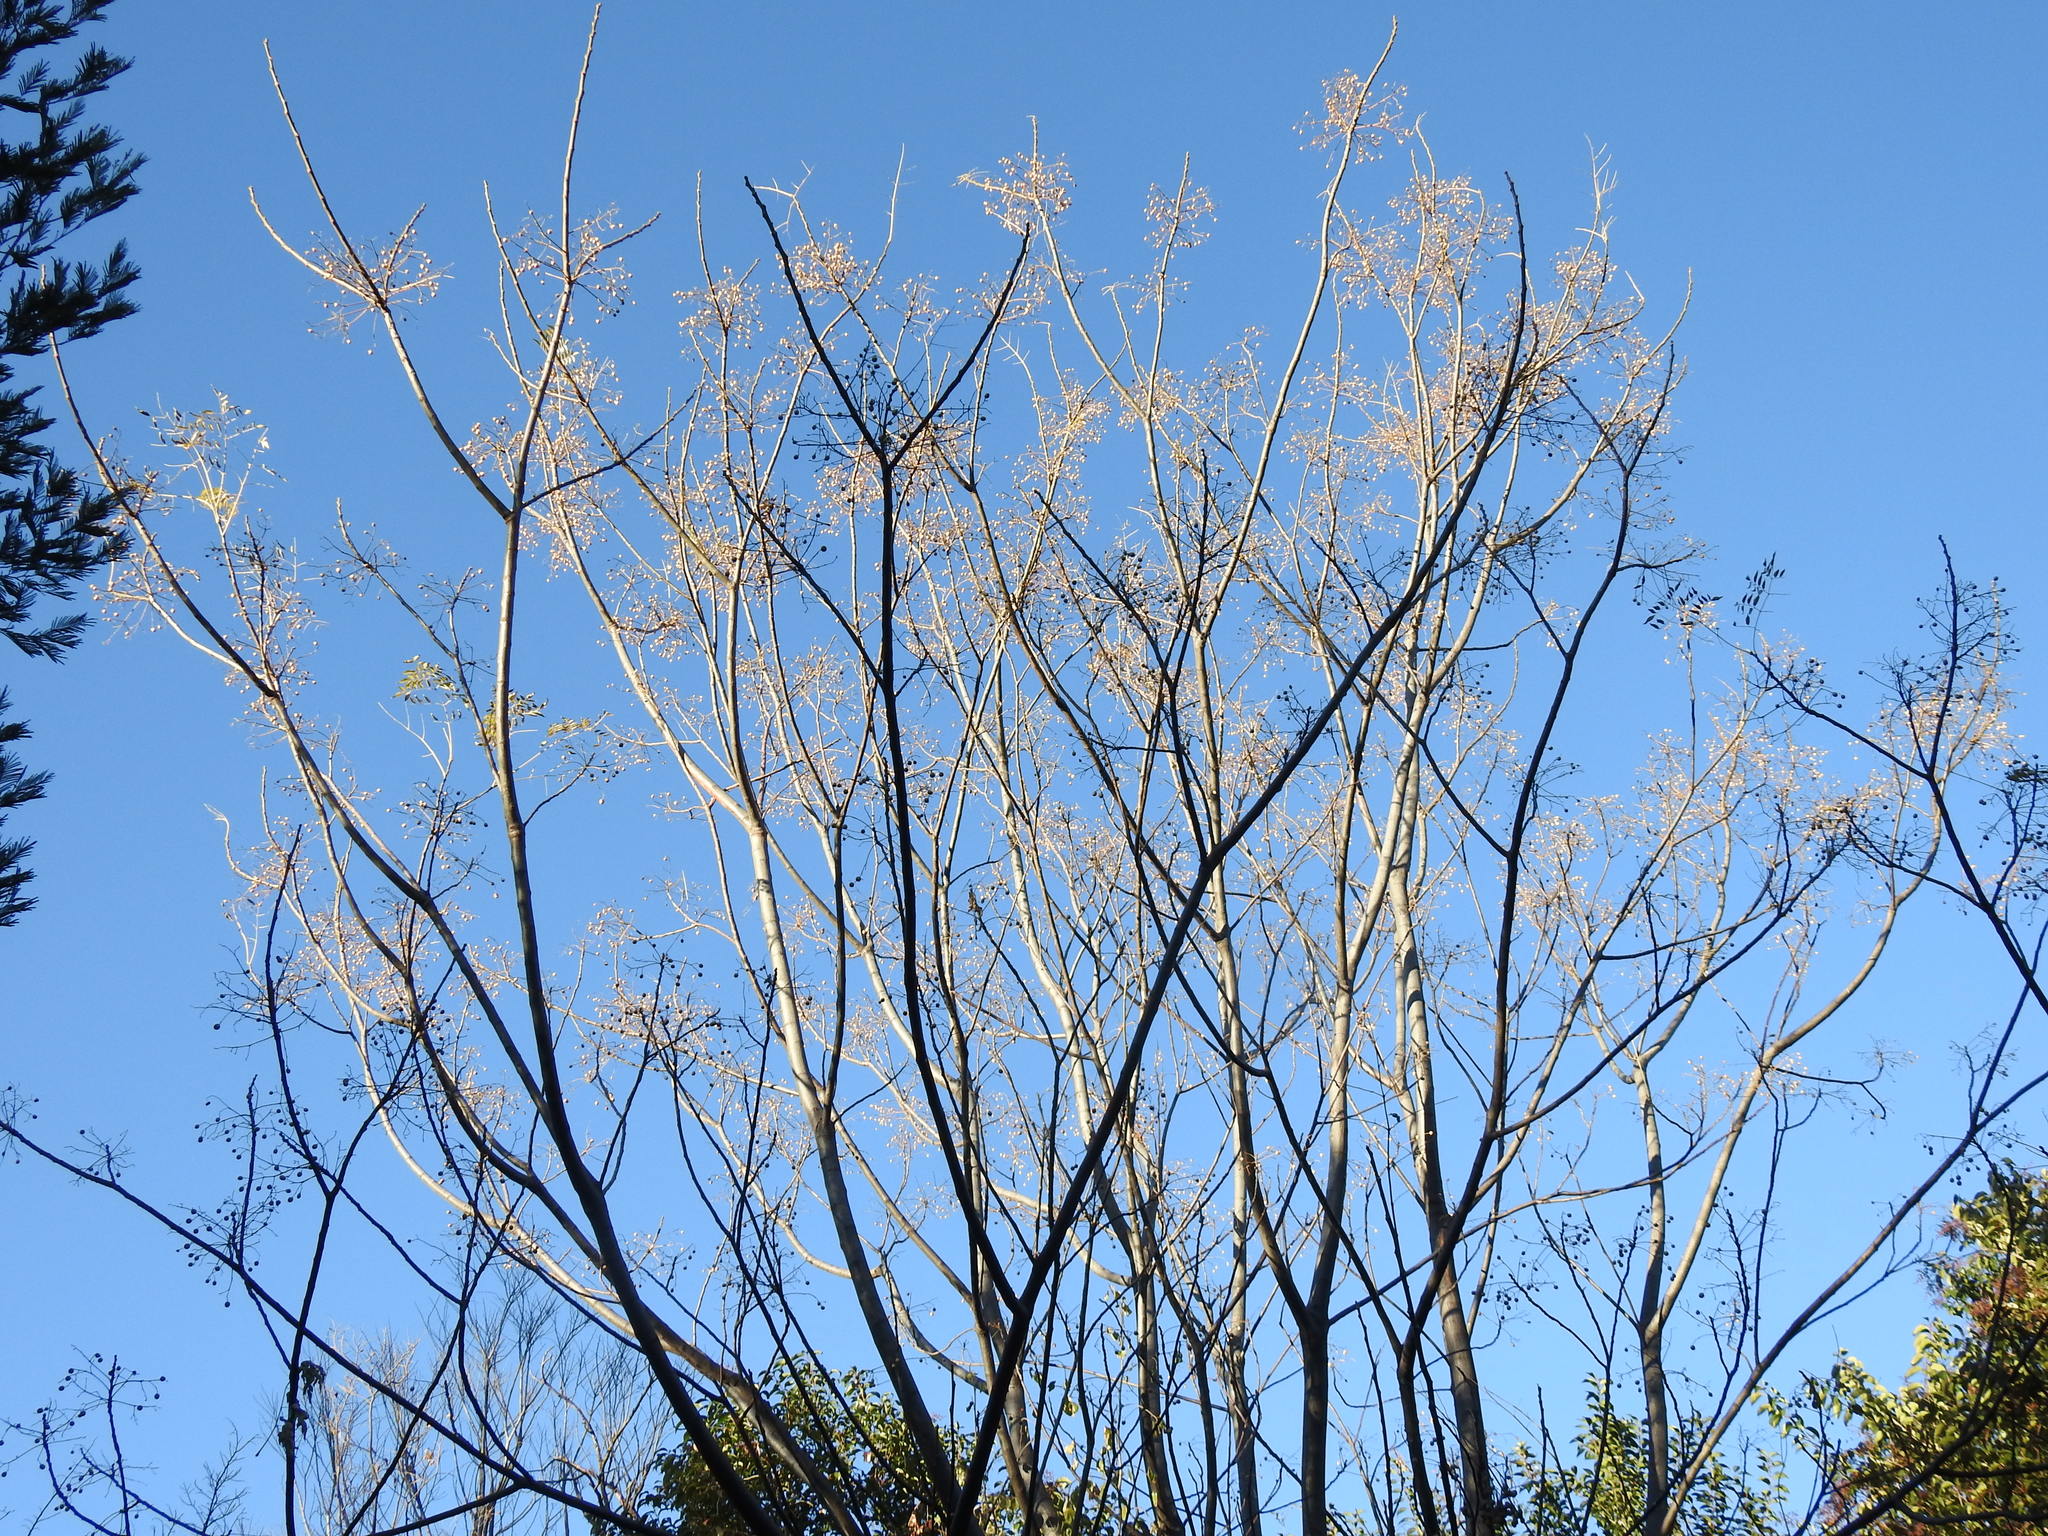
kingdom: Plantae
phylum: Tracheophyta
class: Magnoliopsida
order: Sapindales
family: Meliaceae
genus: Melia
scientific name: Melia azedarach
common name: Chinaberrytree
